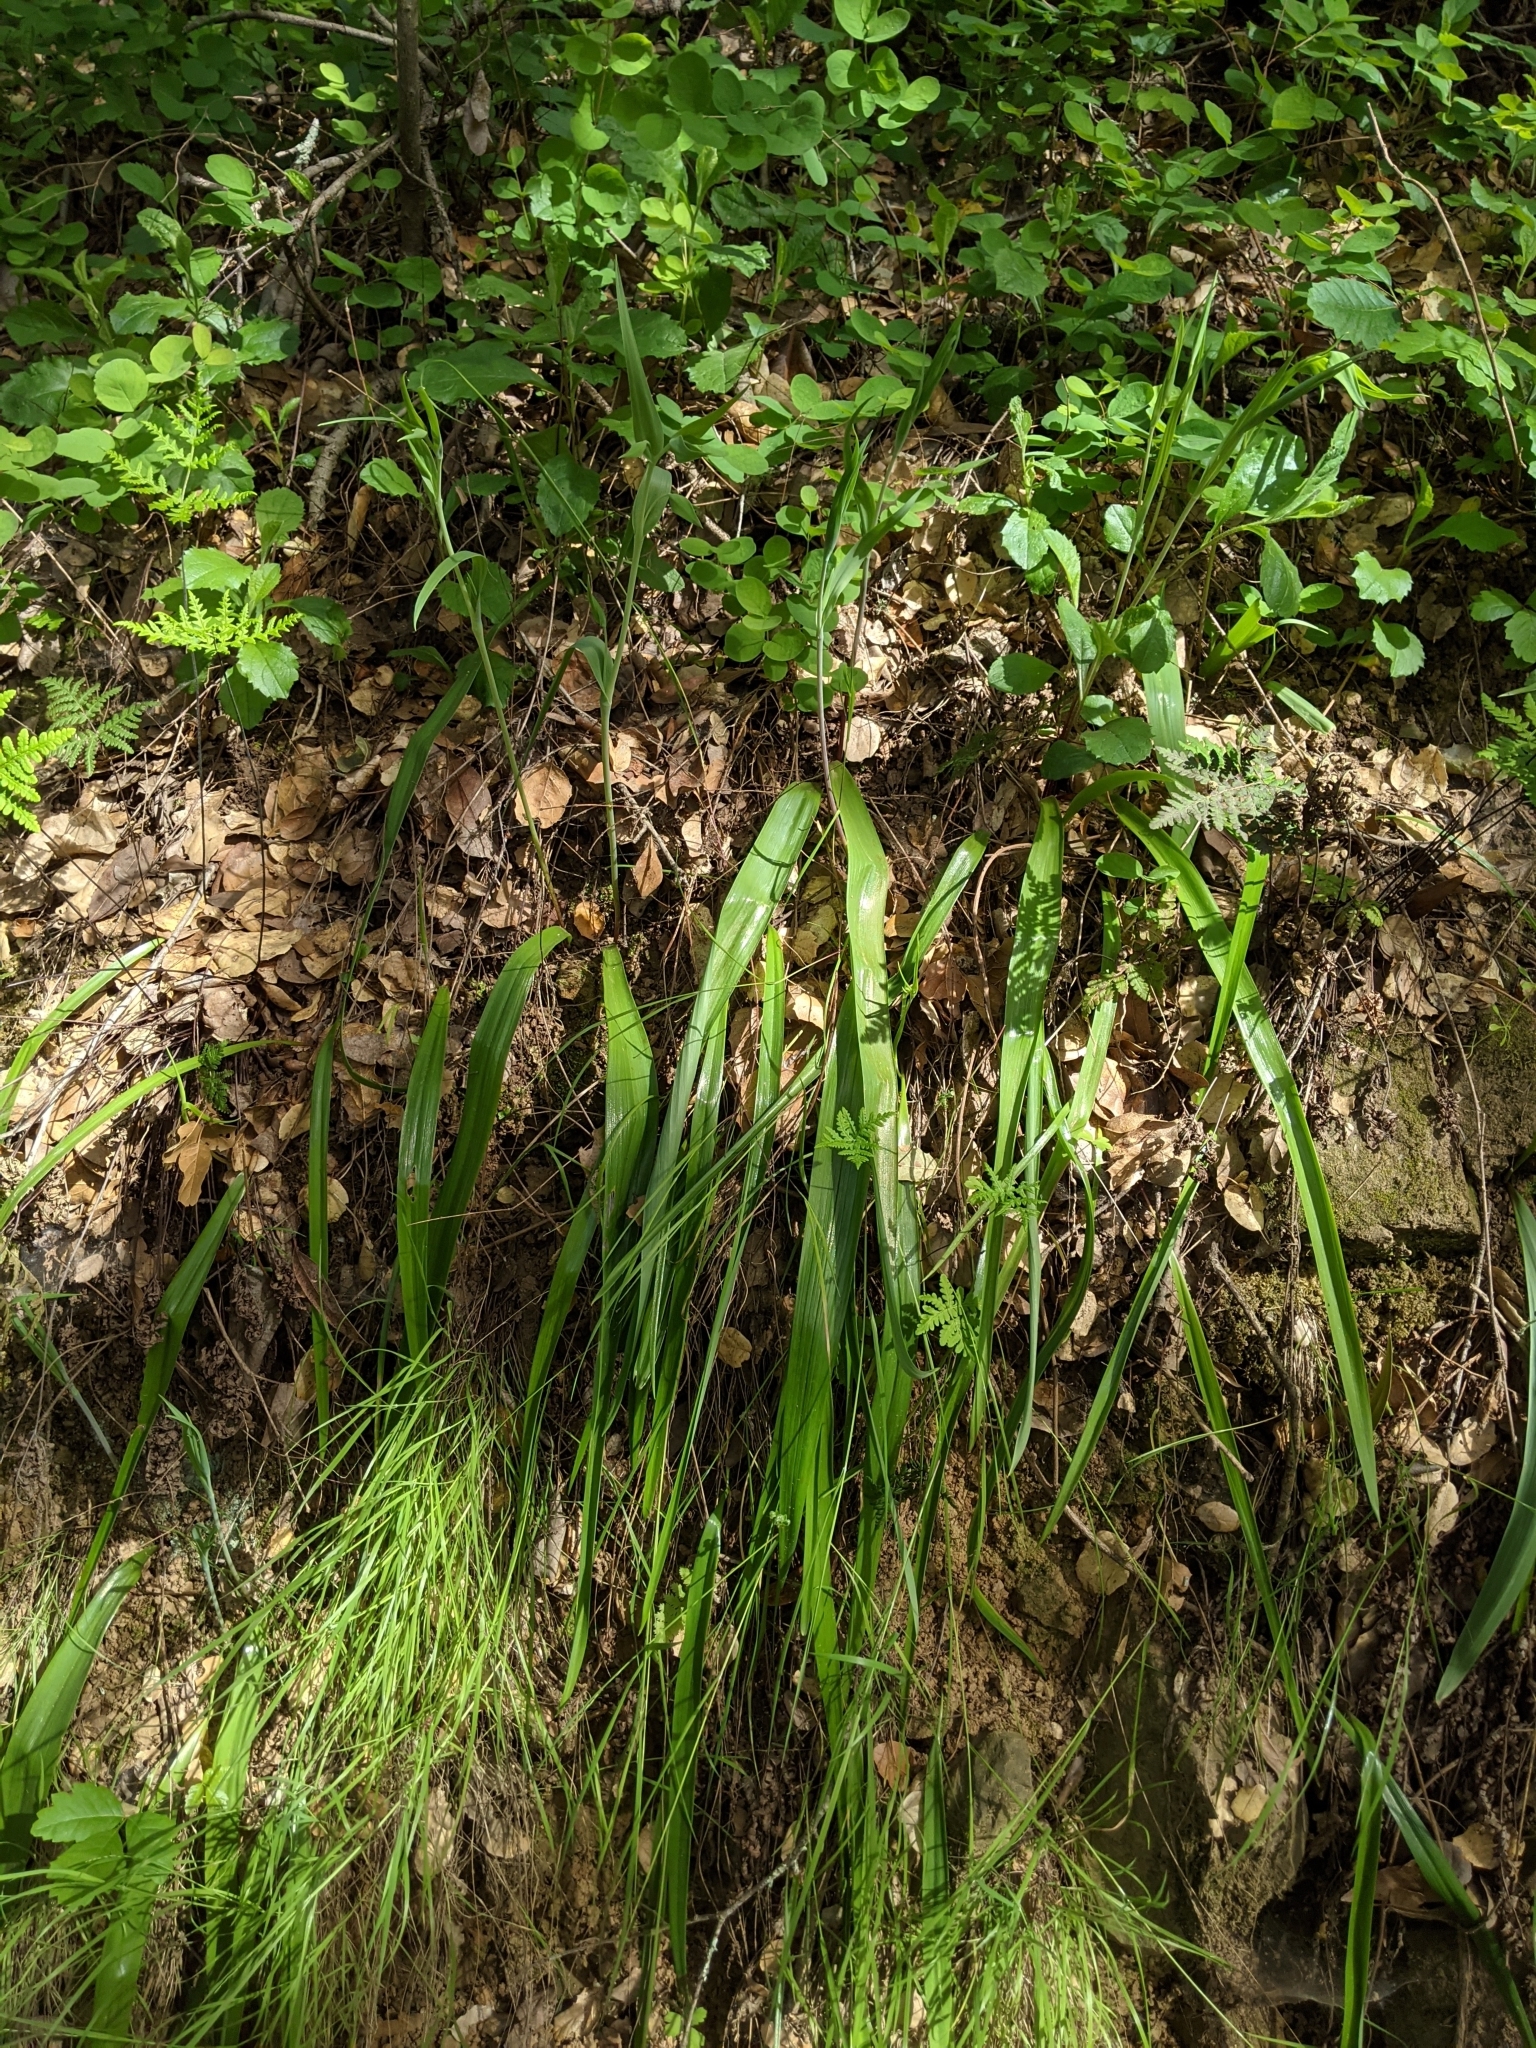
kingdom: Plantae
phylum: Tracheophyta
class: Liliopsida
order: Liliales
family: Liliaceae
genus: Calochortus
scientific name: Calochortus albus
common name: Fairy-lantern
